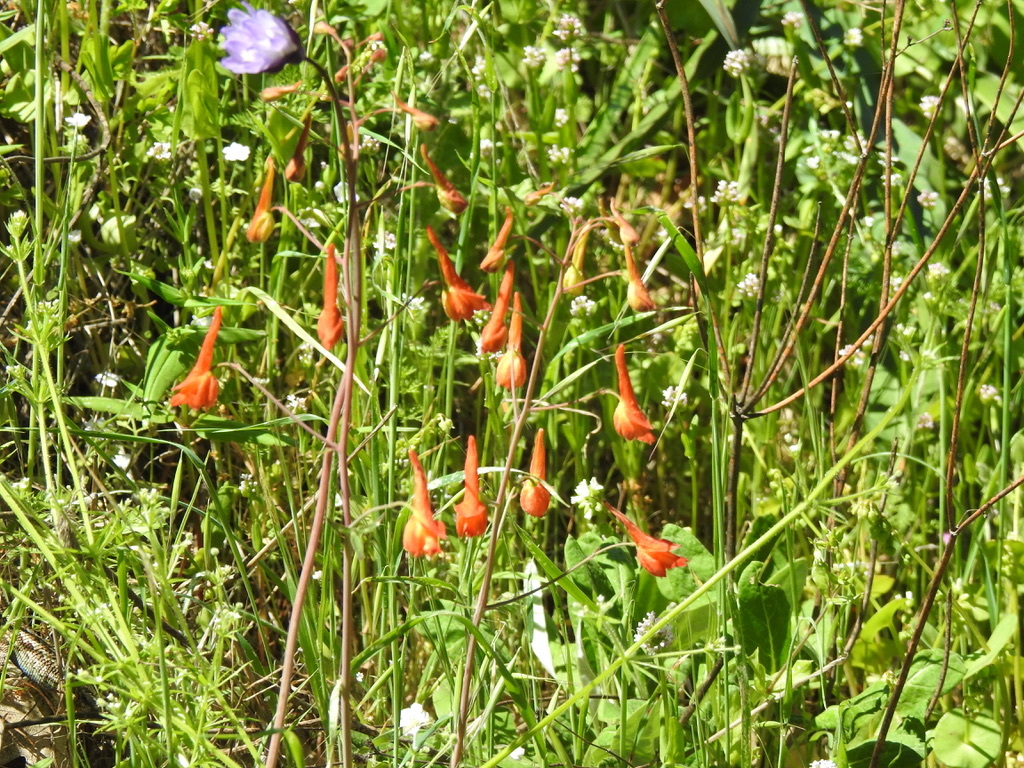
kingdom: Plantae
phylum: Tracheophyta
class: Magnoliopsida
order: Ranunculales
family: Ranunculaceae
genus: Delphinium
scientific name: Delphinium nudicaule
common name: Red larkspur
